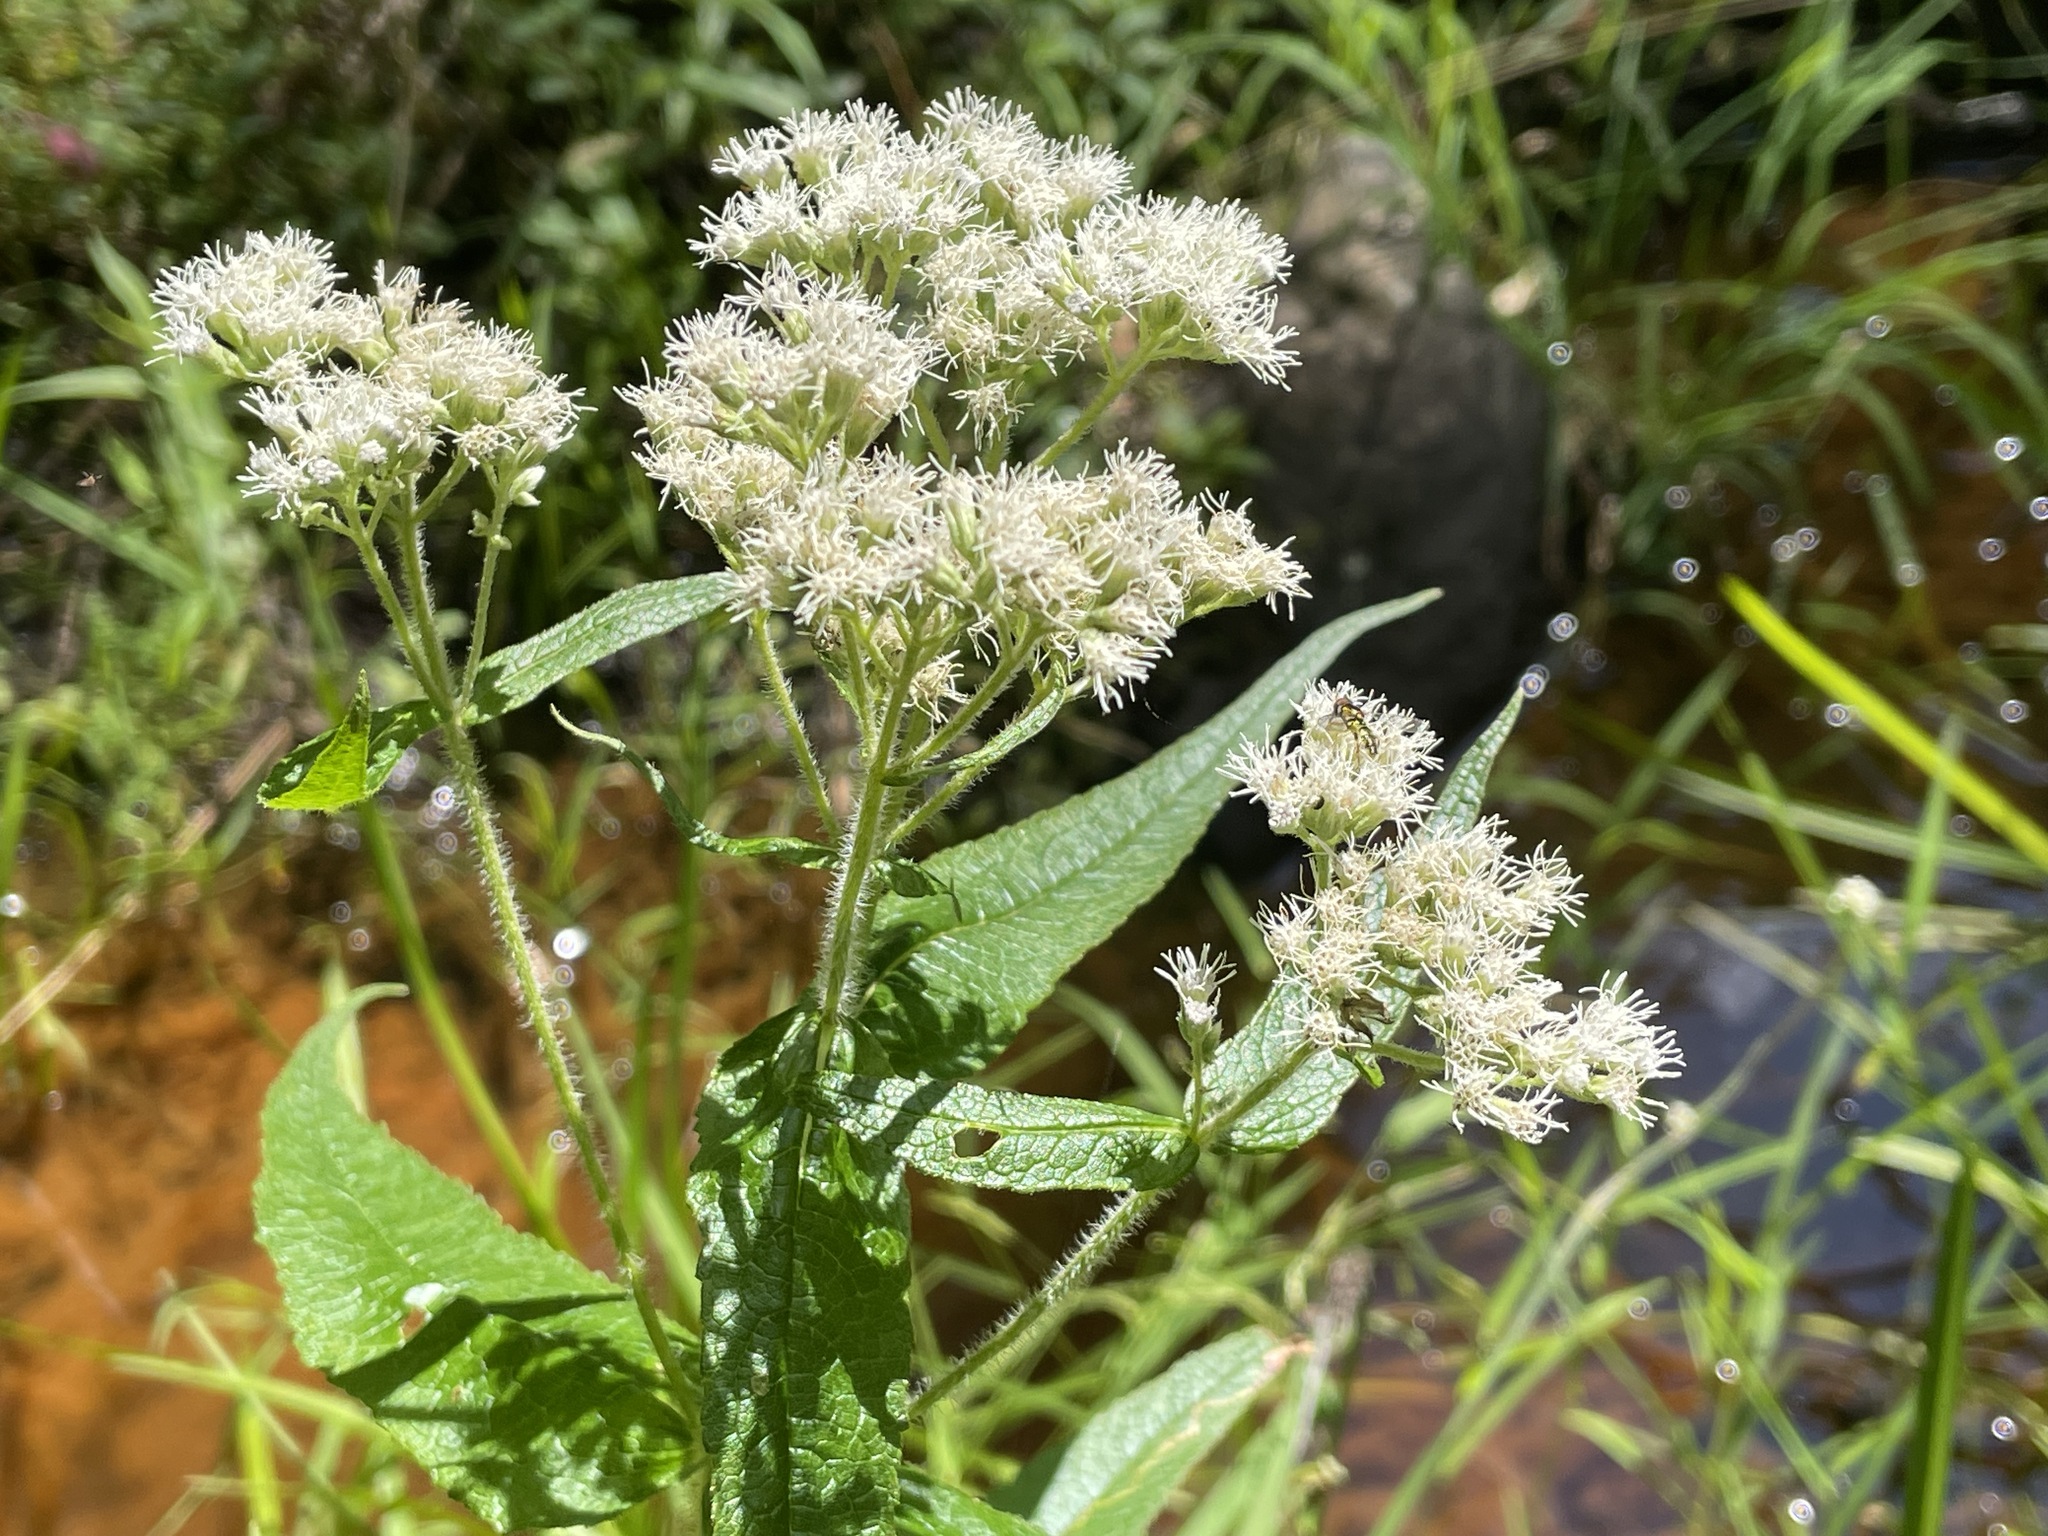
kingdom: Plantae
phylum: Tracheophyta
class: Magnoliopsida
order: Asterales
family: Asteraceae
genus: Eupatorium
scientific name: Eupatorium perfoliatum
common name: Boneset
